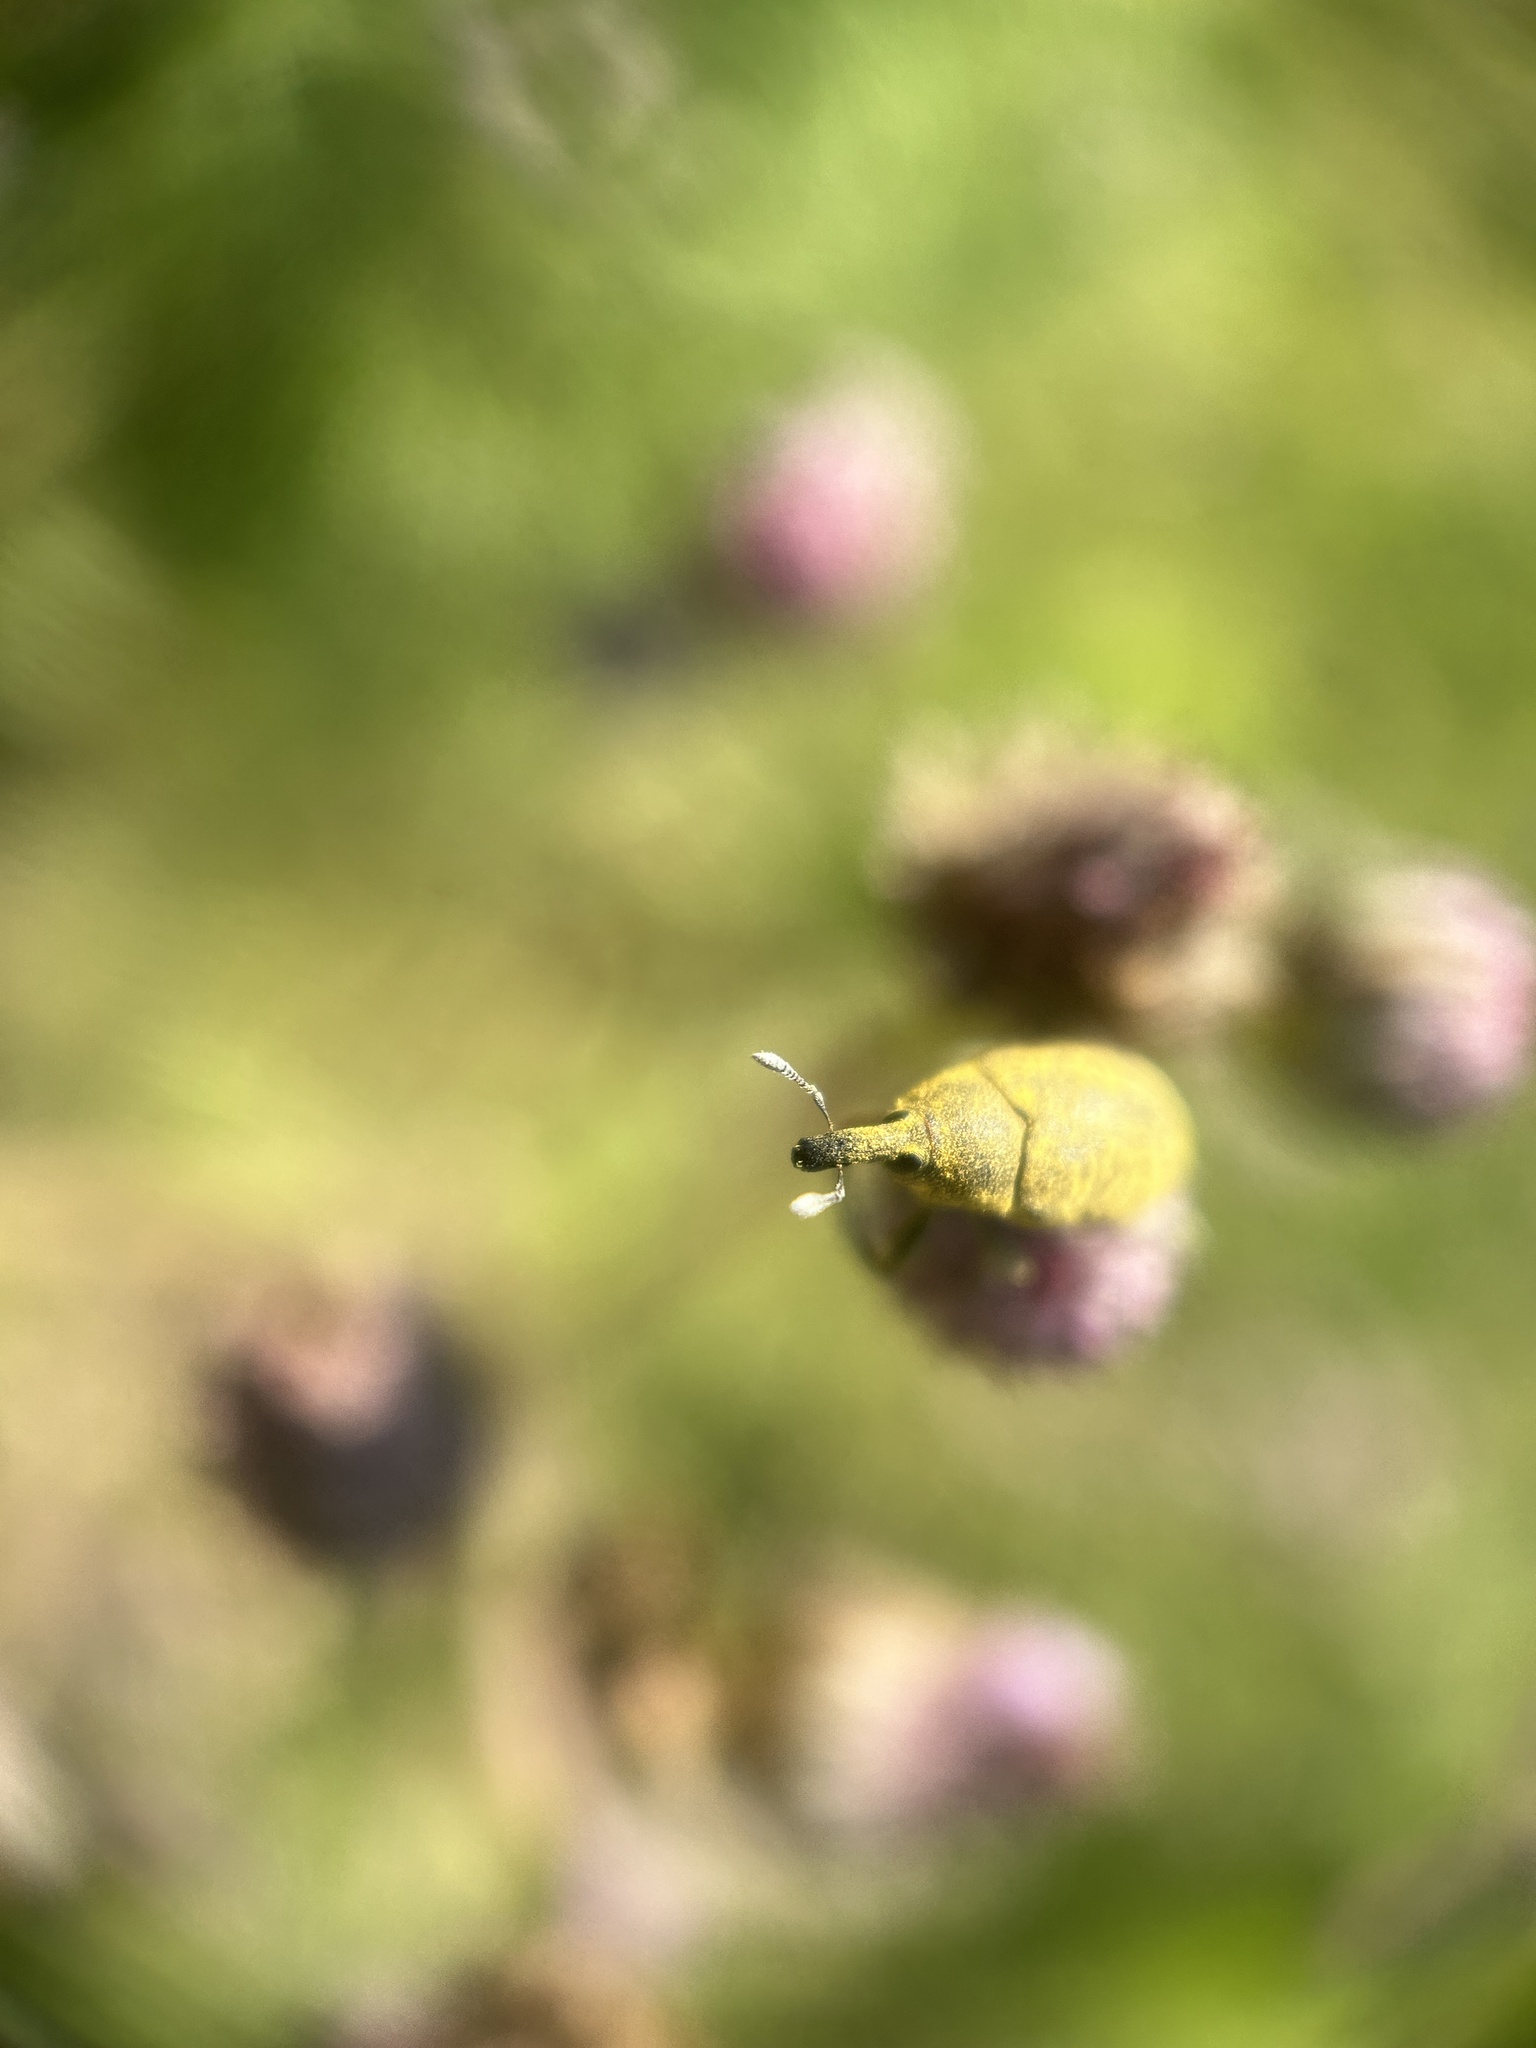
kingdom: Animalia
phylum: Arthropoda
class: Insecta
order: Coleoptera
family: Curculionidae
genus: Larinus
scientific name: Larinus carlinae
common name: Weevil
